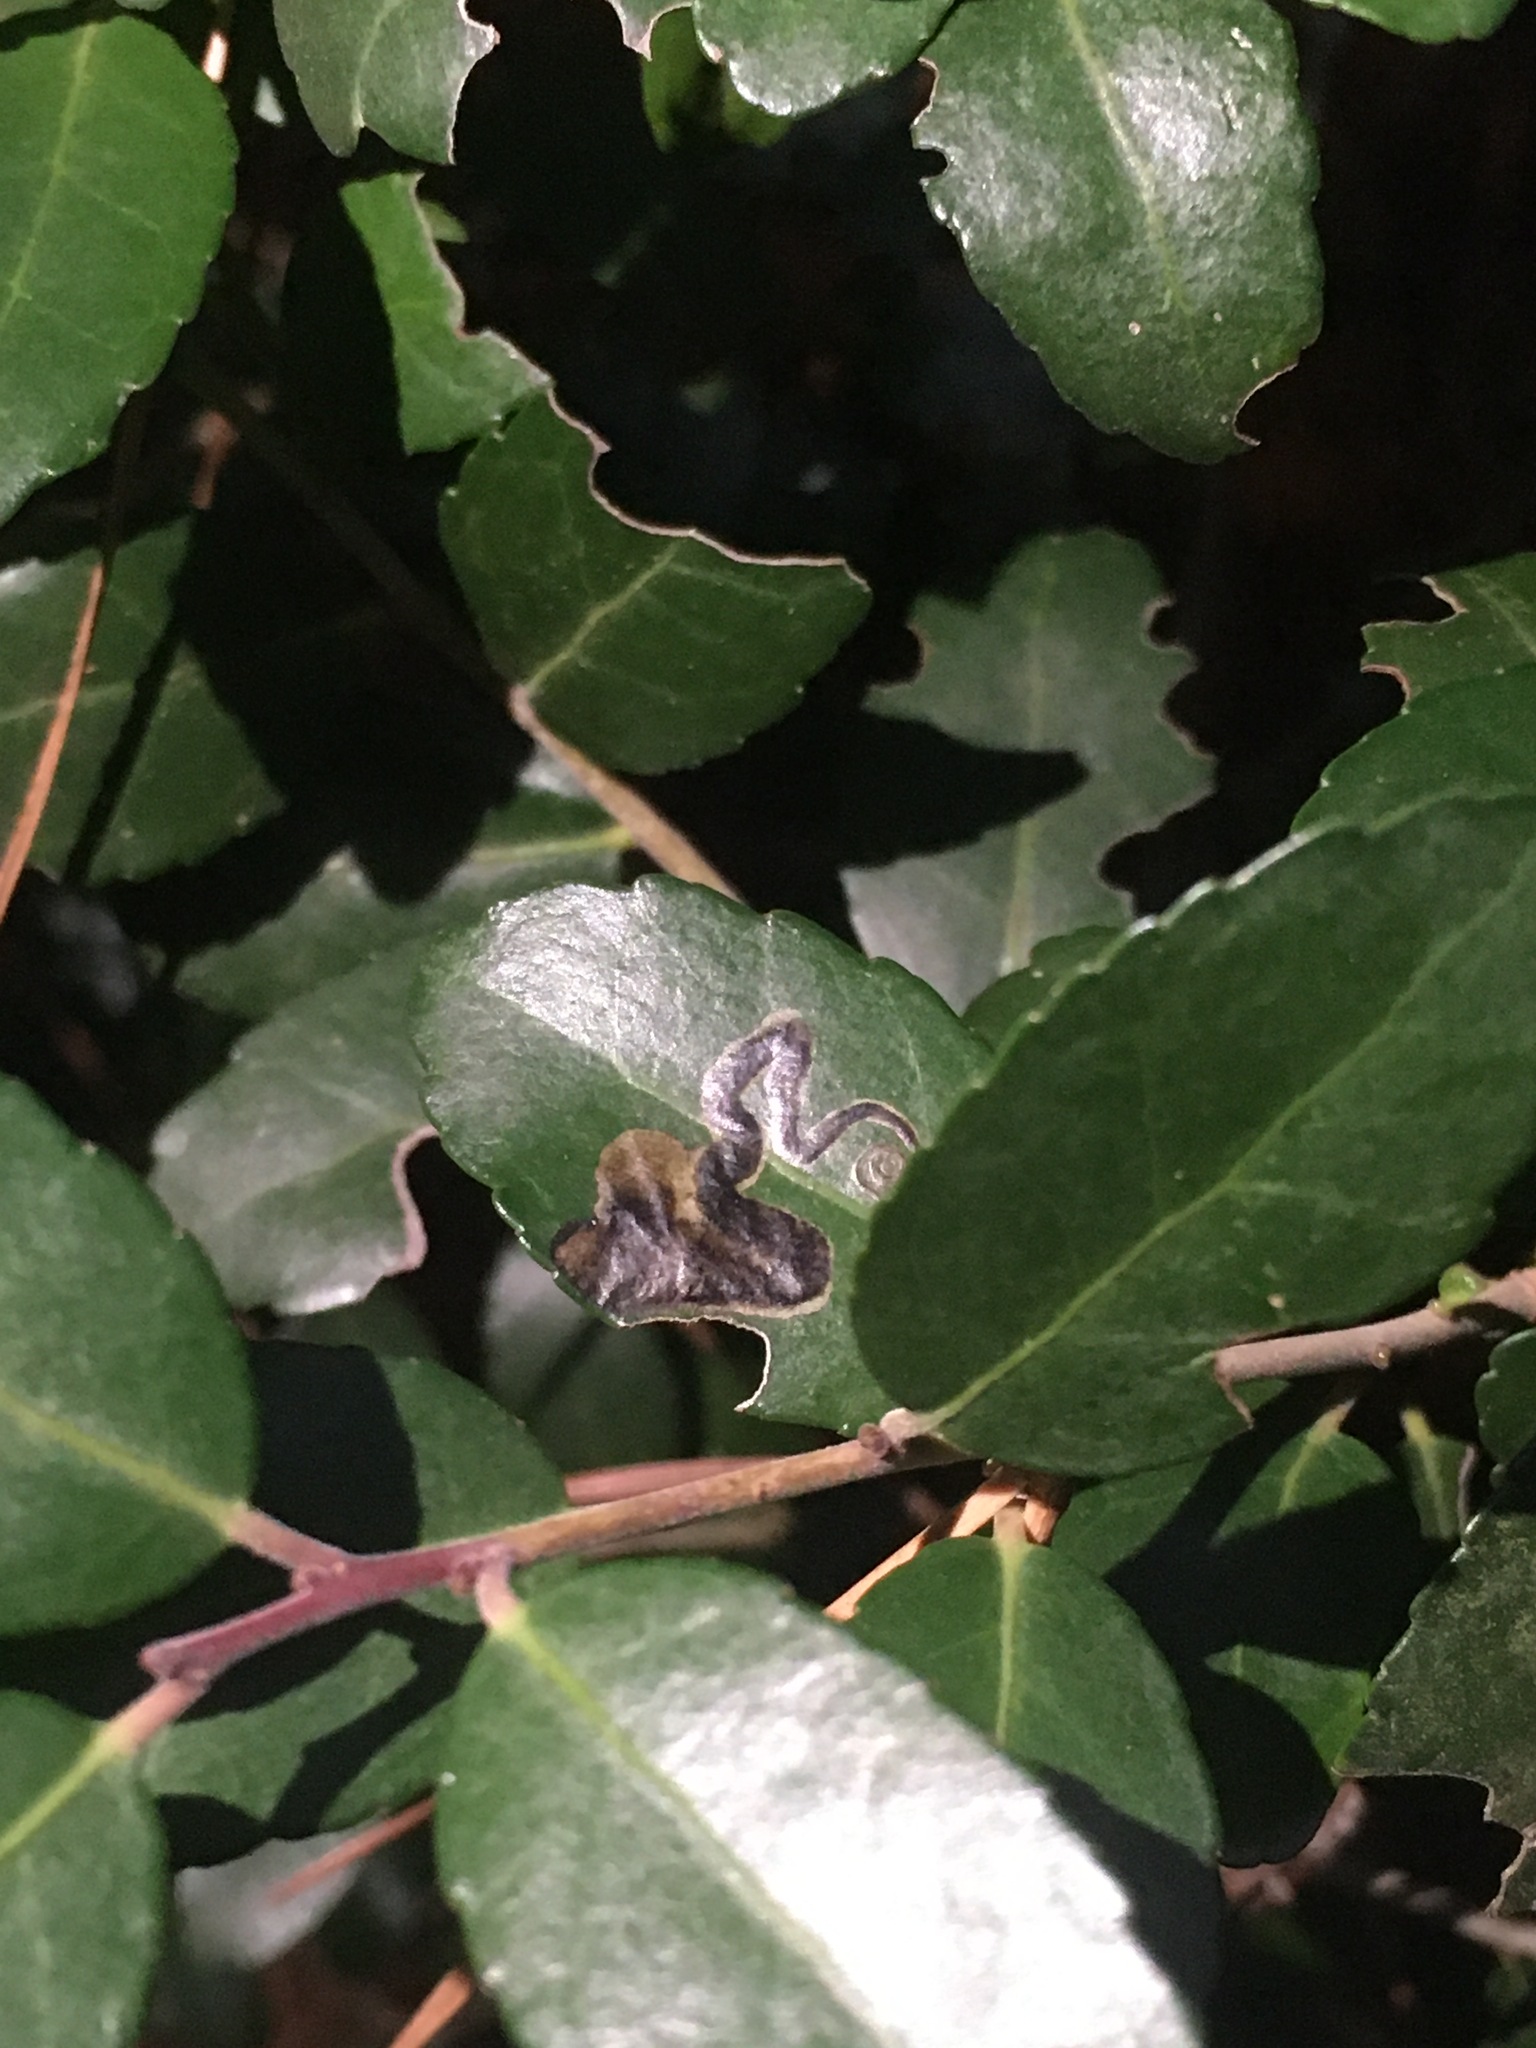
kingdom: Animalia
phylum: Arthropoda
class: Insecta
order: Diptera
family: Agromyzidae
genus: Phytomyza
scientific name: Phytomyza vomitoriae
